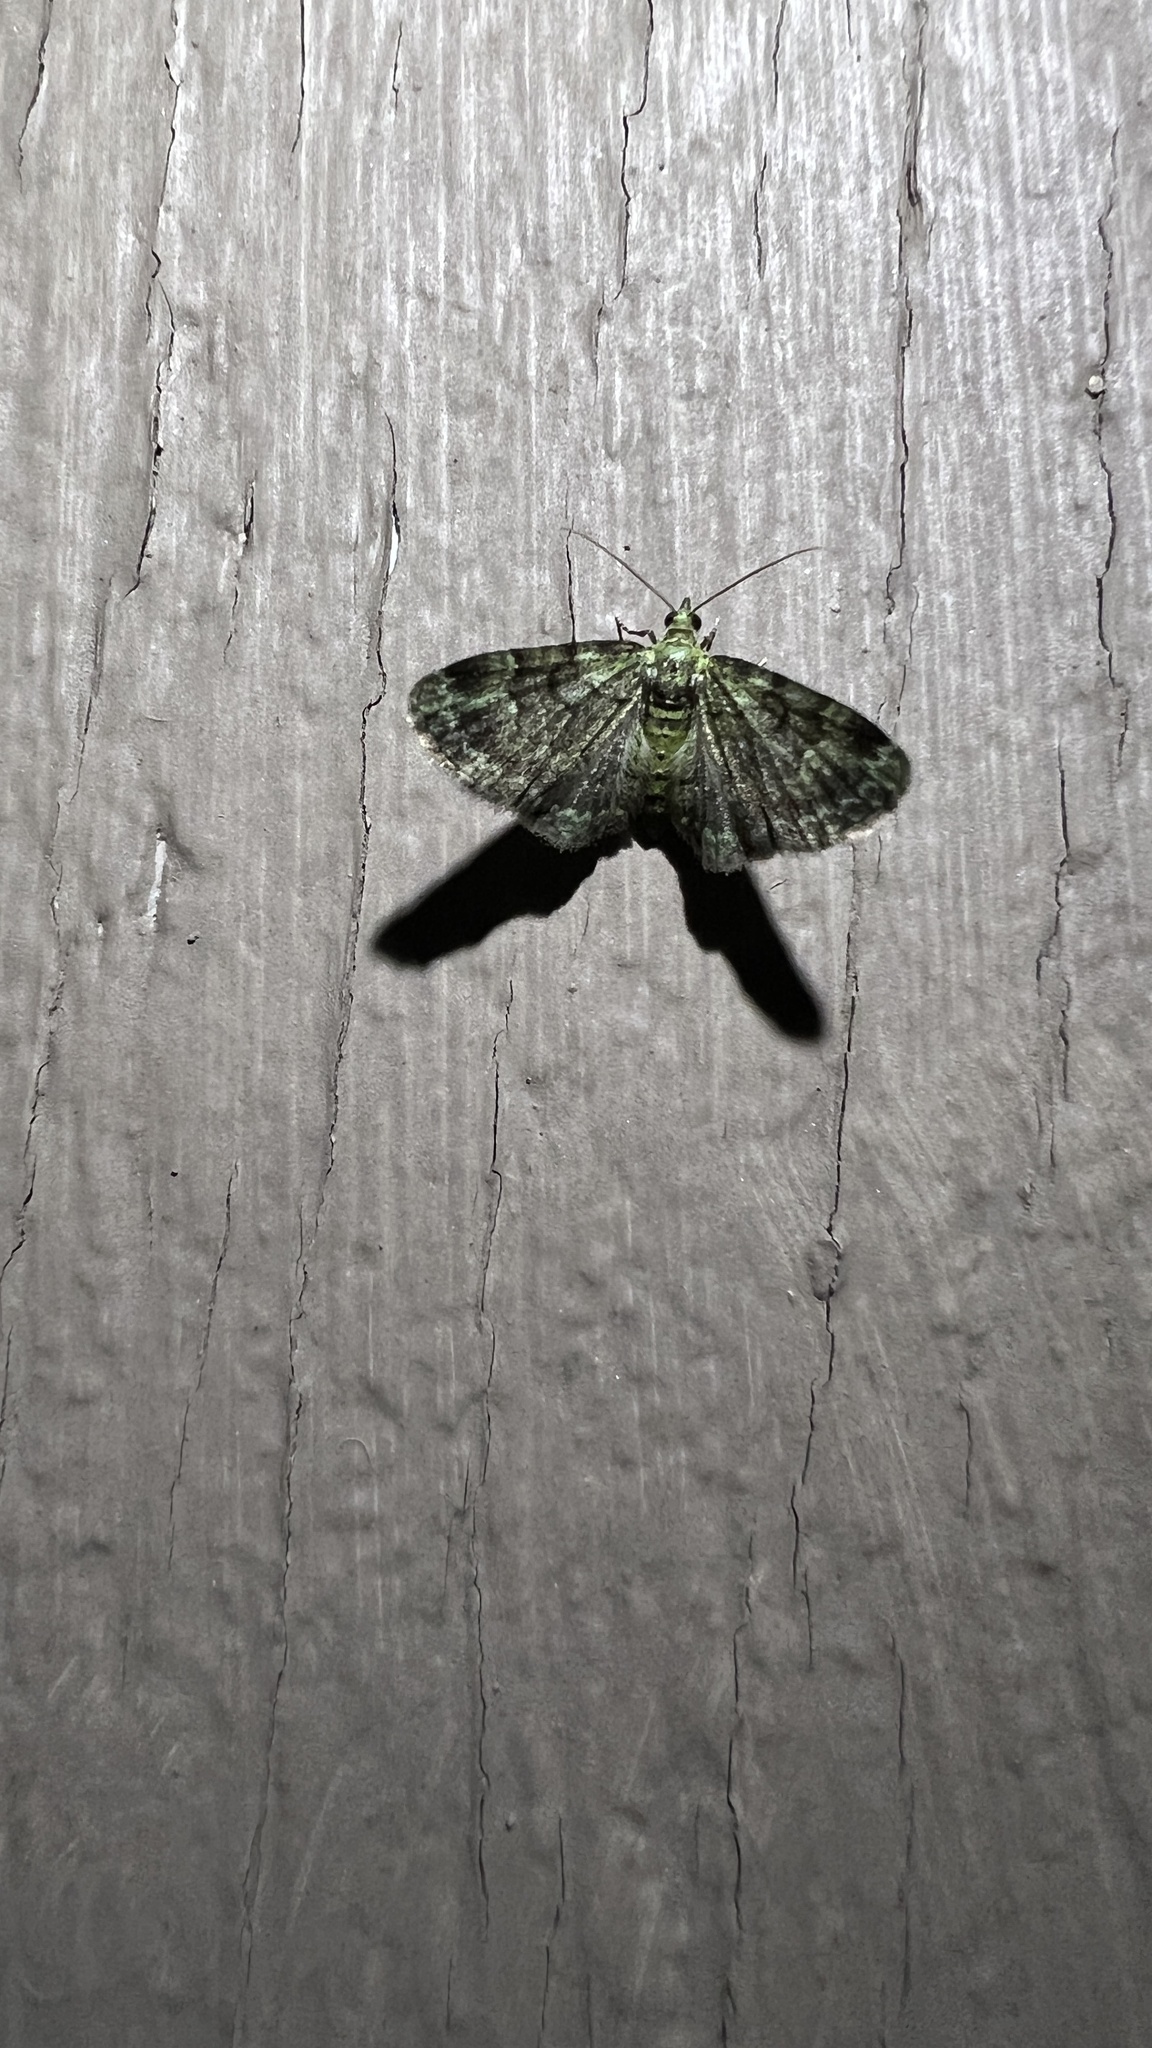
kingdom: Animalia
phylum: Arthropoda
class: Insecta
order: Lepidoptera
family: Geometridae
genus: Pasiphila
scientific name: Pasiphila rectangulata
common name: Green pug
